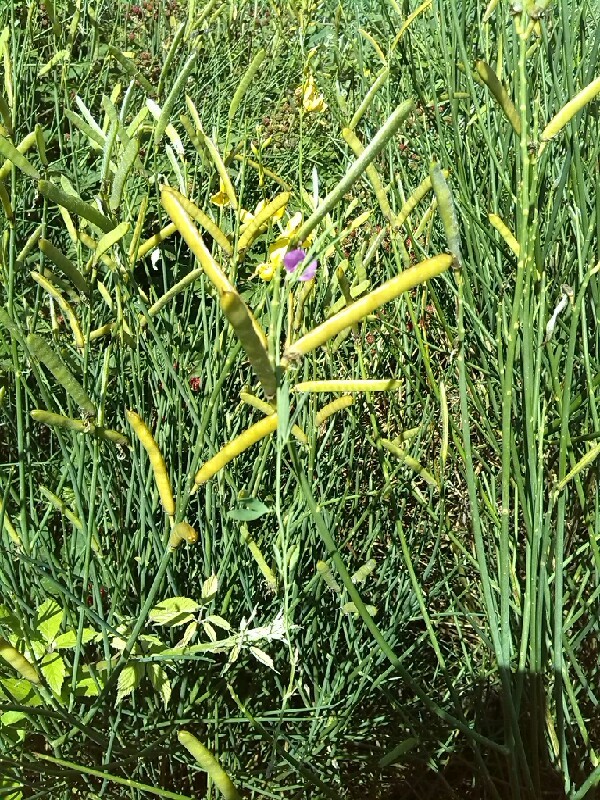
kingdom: Plantae
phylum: Tracheophyta
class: Magnoliopsida
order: Fabales
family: Fabaceae
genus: Spartium
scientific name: Spartium junceum
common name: Spanish broom
